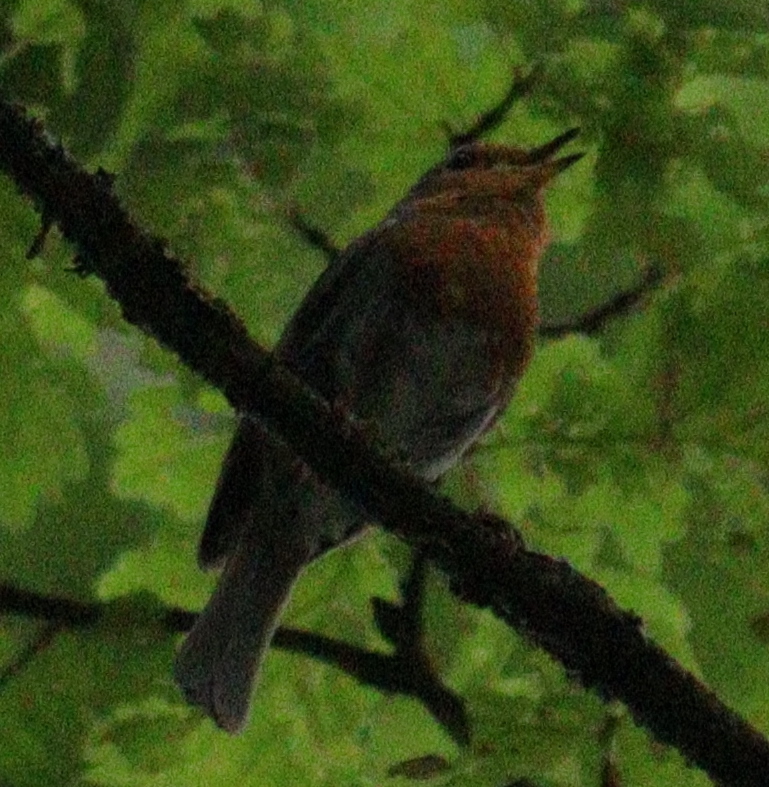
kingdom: Animalia
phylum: Chordata
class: Aves
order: Passeriformes
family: Muscicapidae
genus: Erithacus
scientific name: Erithacus rubecula
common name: European robin
